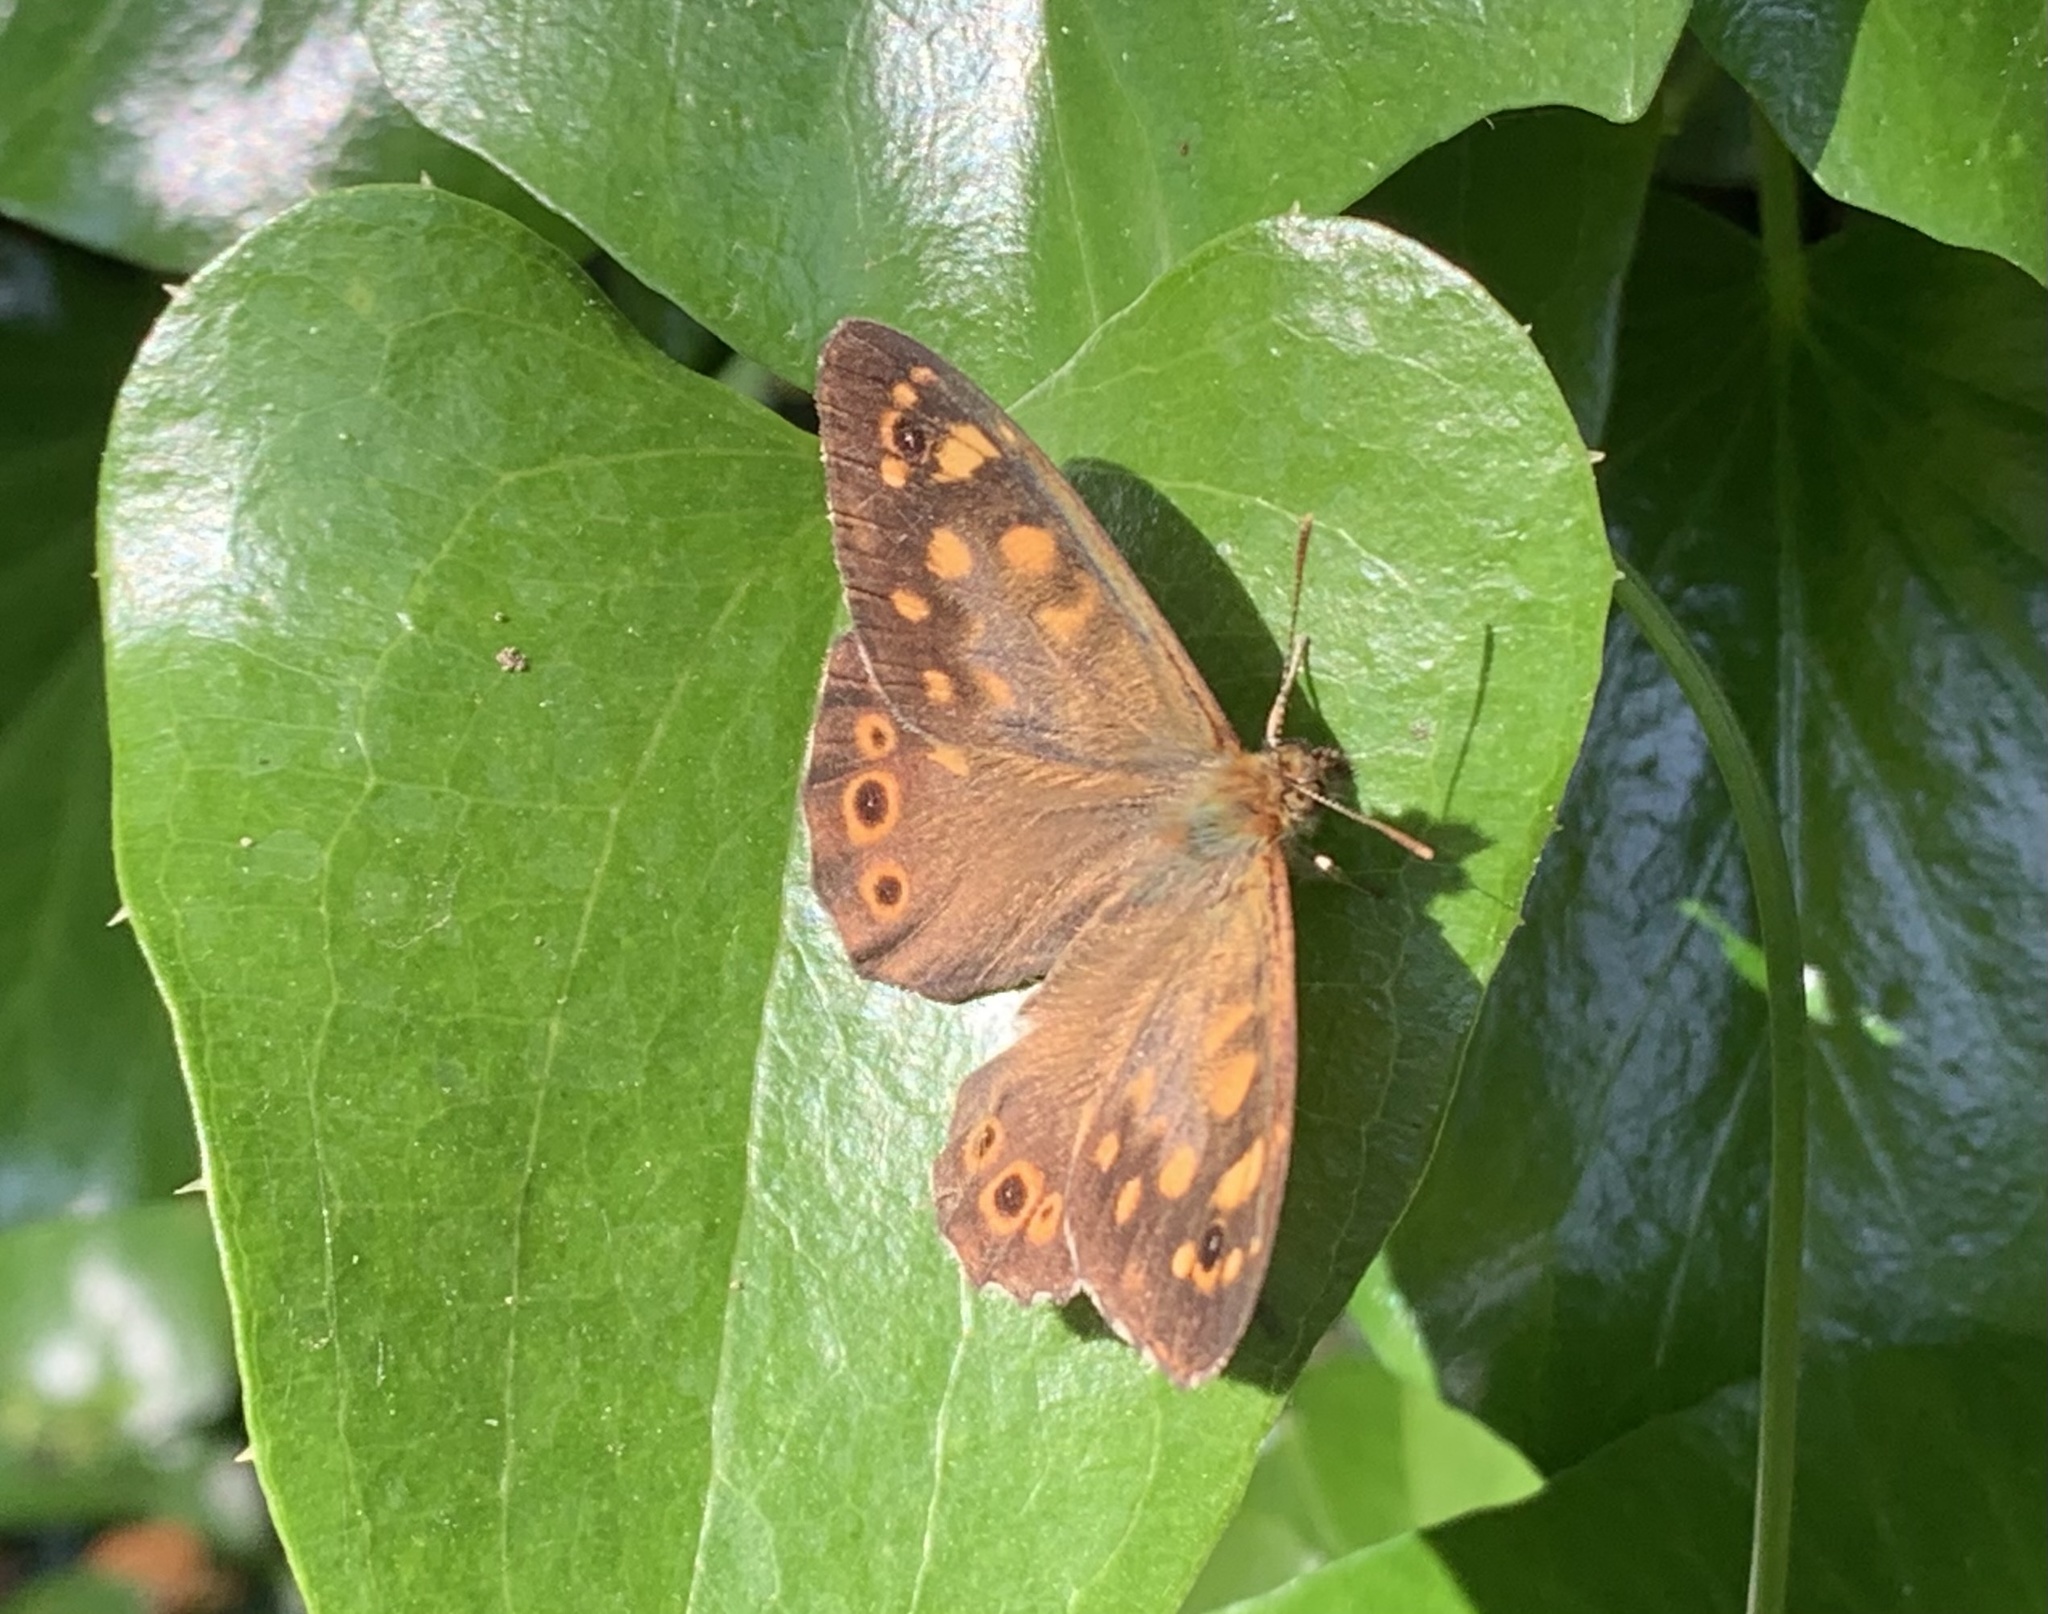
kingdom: Animalia
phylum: Arthropoda
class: Insecta
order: Lepidoptera
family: Nymphalidae
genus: Pararge
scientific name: Pararge aegeria
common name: Speckled wood
